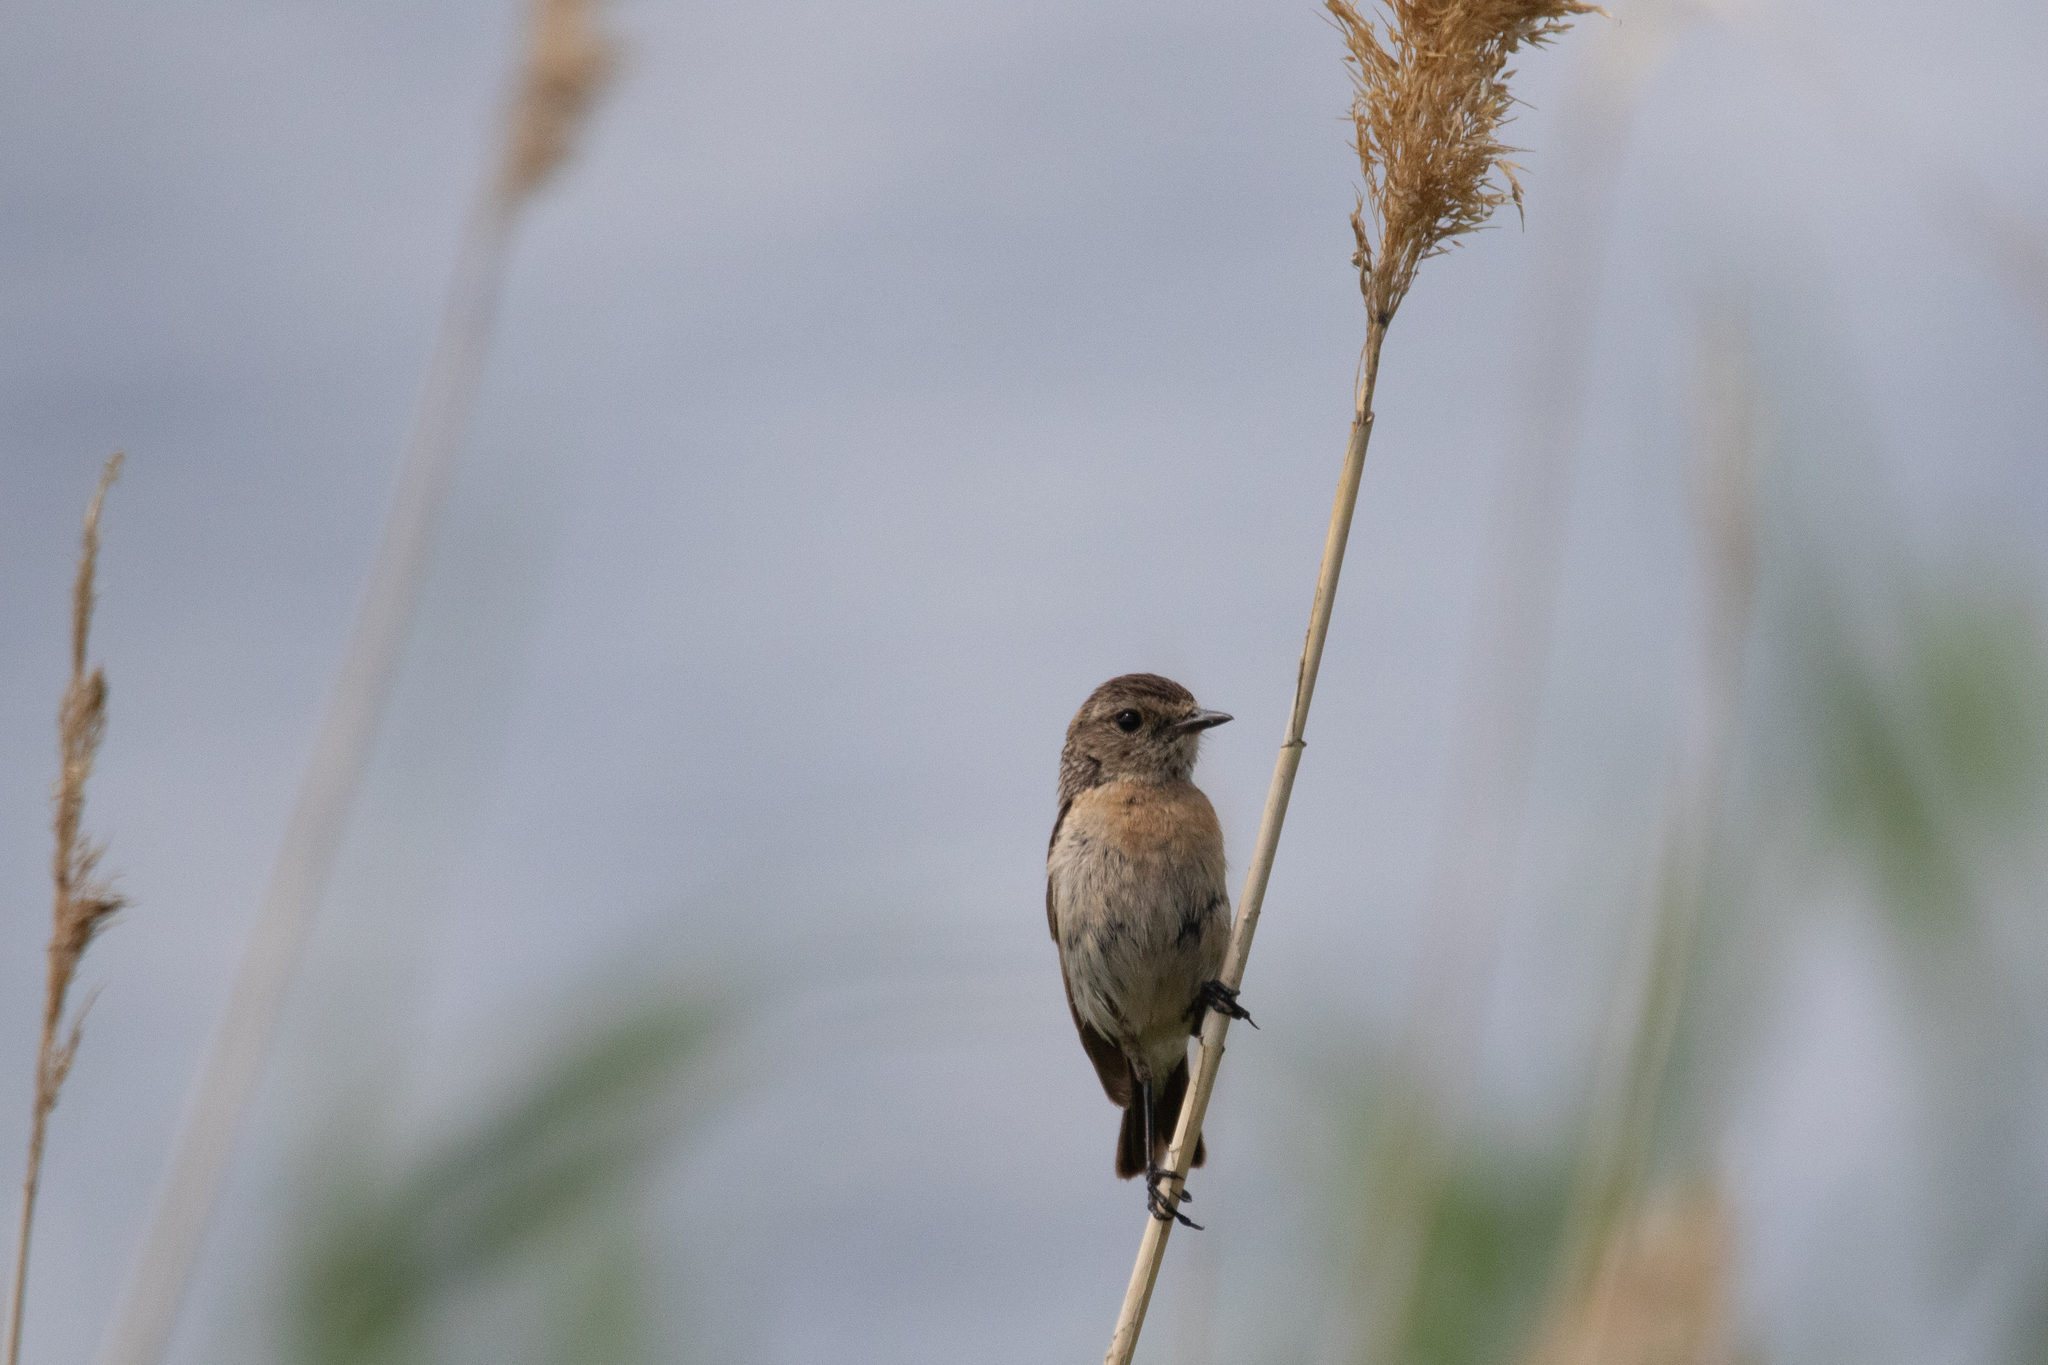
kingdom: Animalia
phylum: Chordata
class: Aves
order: Passeriformes
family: Muscicapidae
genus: Saxicola
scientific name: Saxicola maurus
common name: Siberian stonechat
